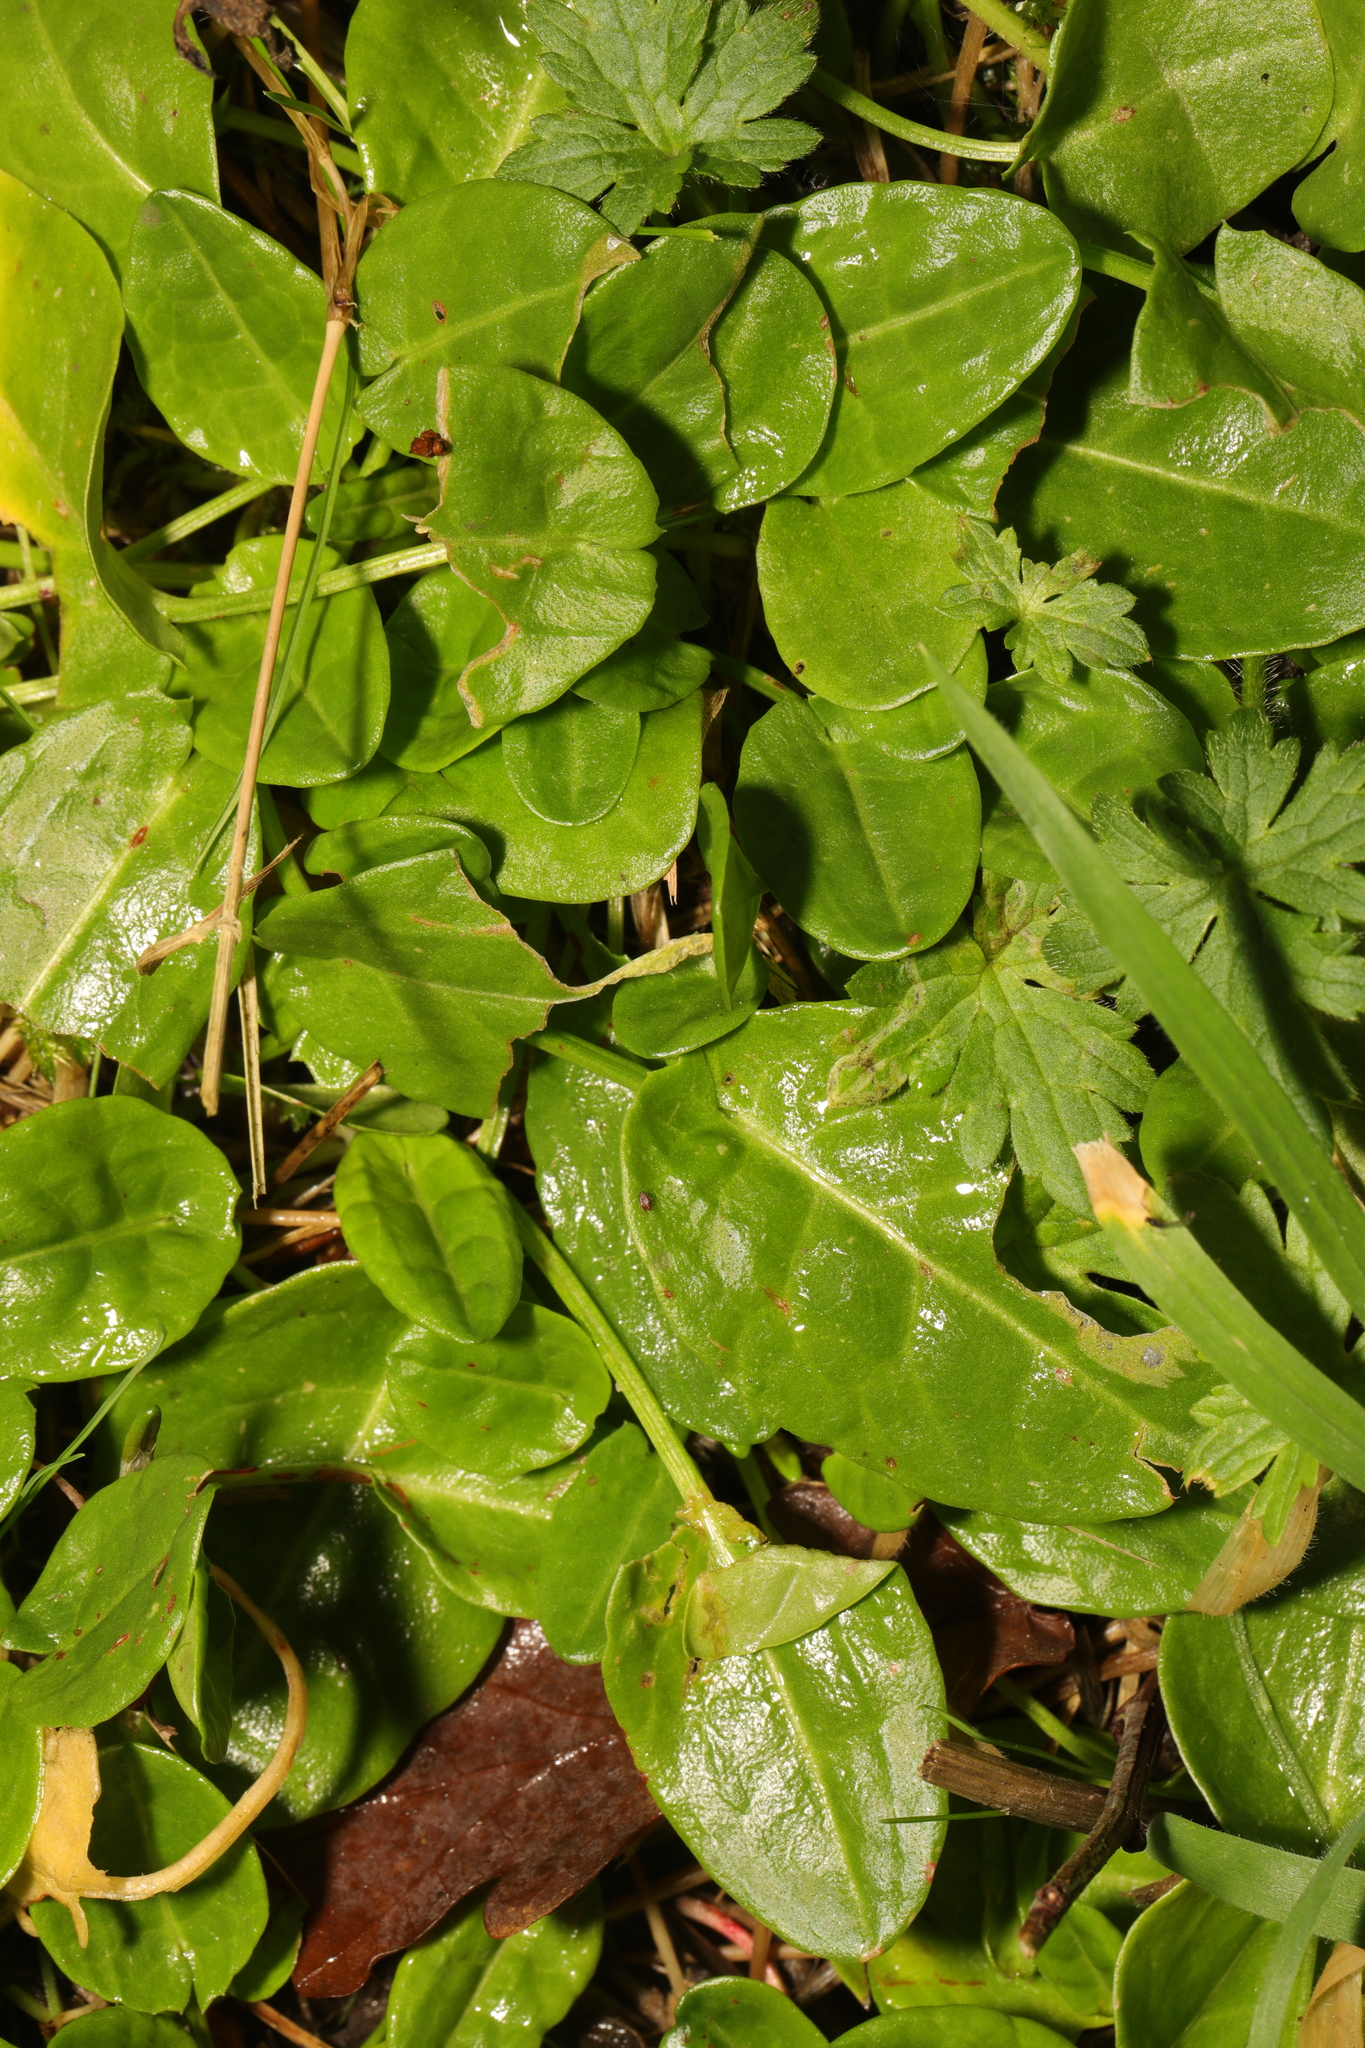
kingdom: Plantae
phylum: Tracheophyta
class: Magnoliopsida
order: Caryophyllales
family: Polygonaceae
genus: Rumex
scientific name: Rumex acetosa
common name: Garden sorrel
